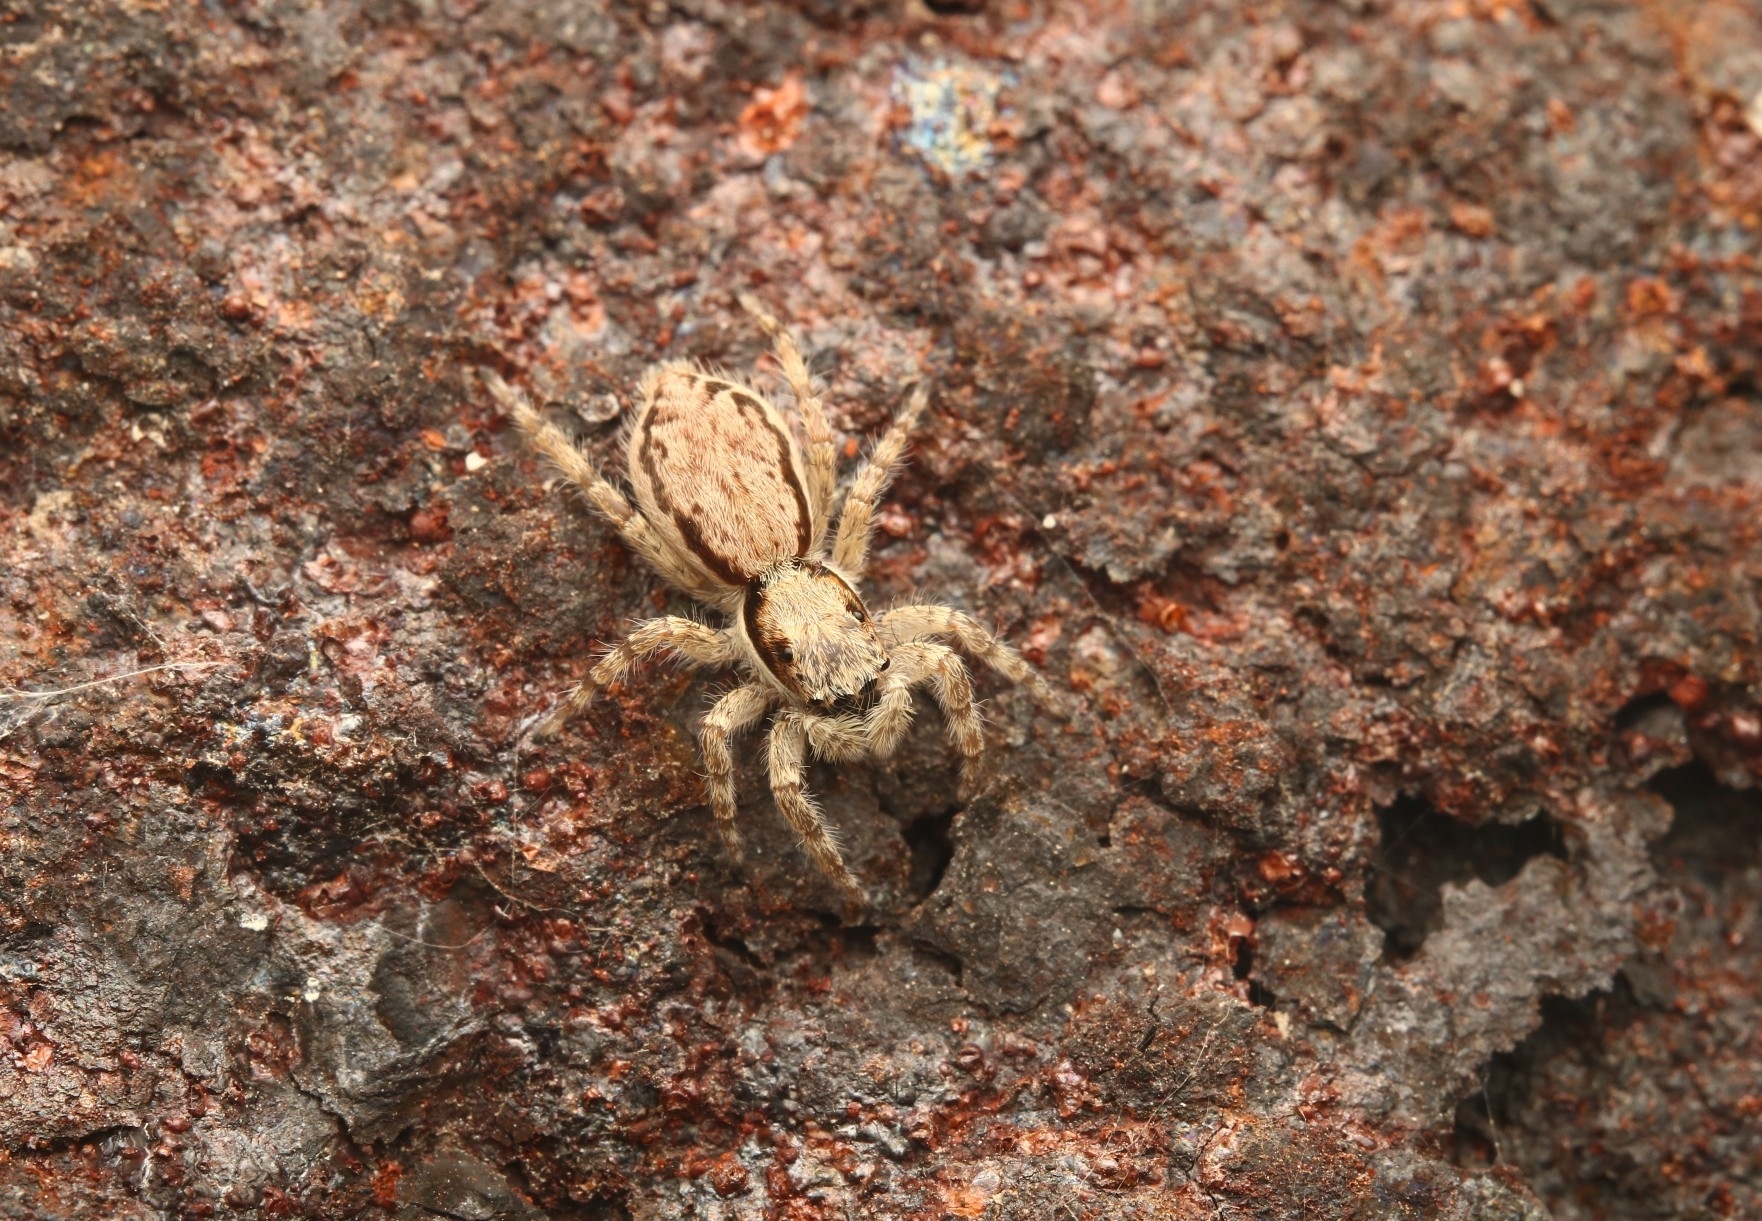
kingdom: Animalia
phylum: Arthropoda
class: Arachnida
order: Araneae
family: Salticidae
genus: Menemerus
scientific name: Menemerus bivittatus
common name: Gray wall jumper
